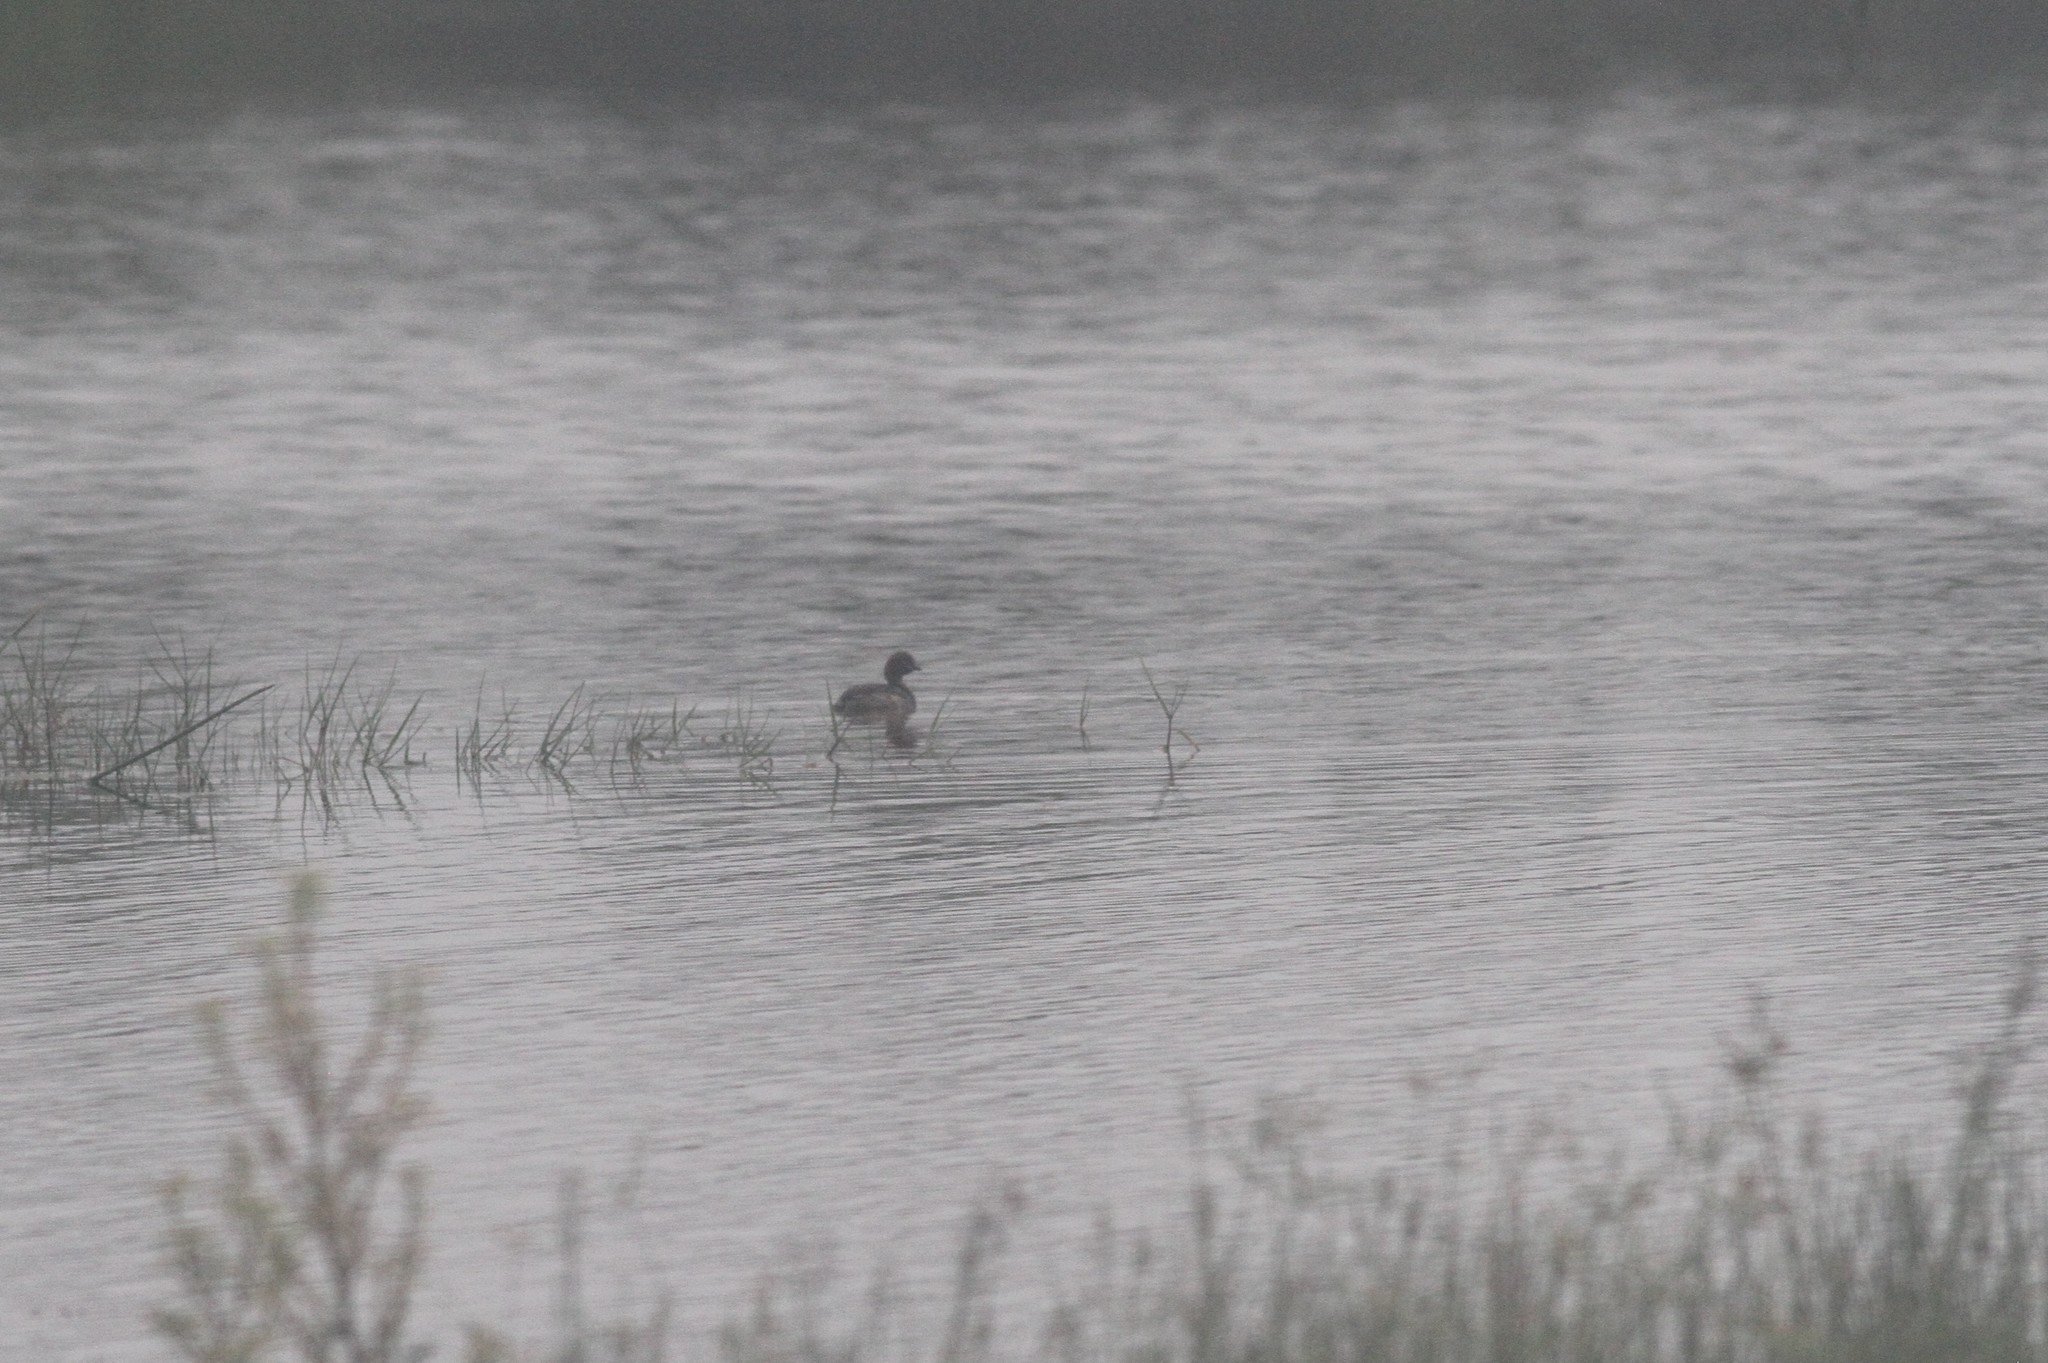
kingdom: Animalia
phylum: Chordata
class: Aves
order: Podicipediformes
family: Podicipedidae
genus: Tachybaptus
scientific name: Tachybaptus ruficollis
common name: Little grebe
